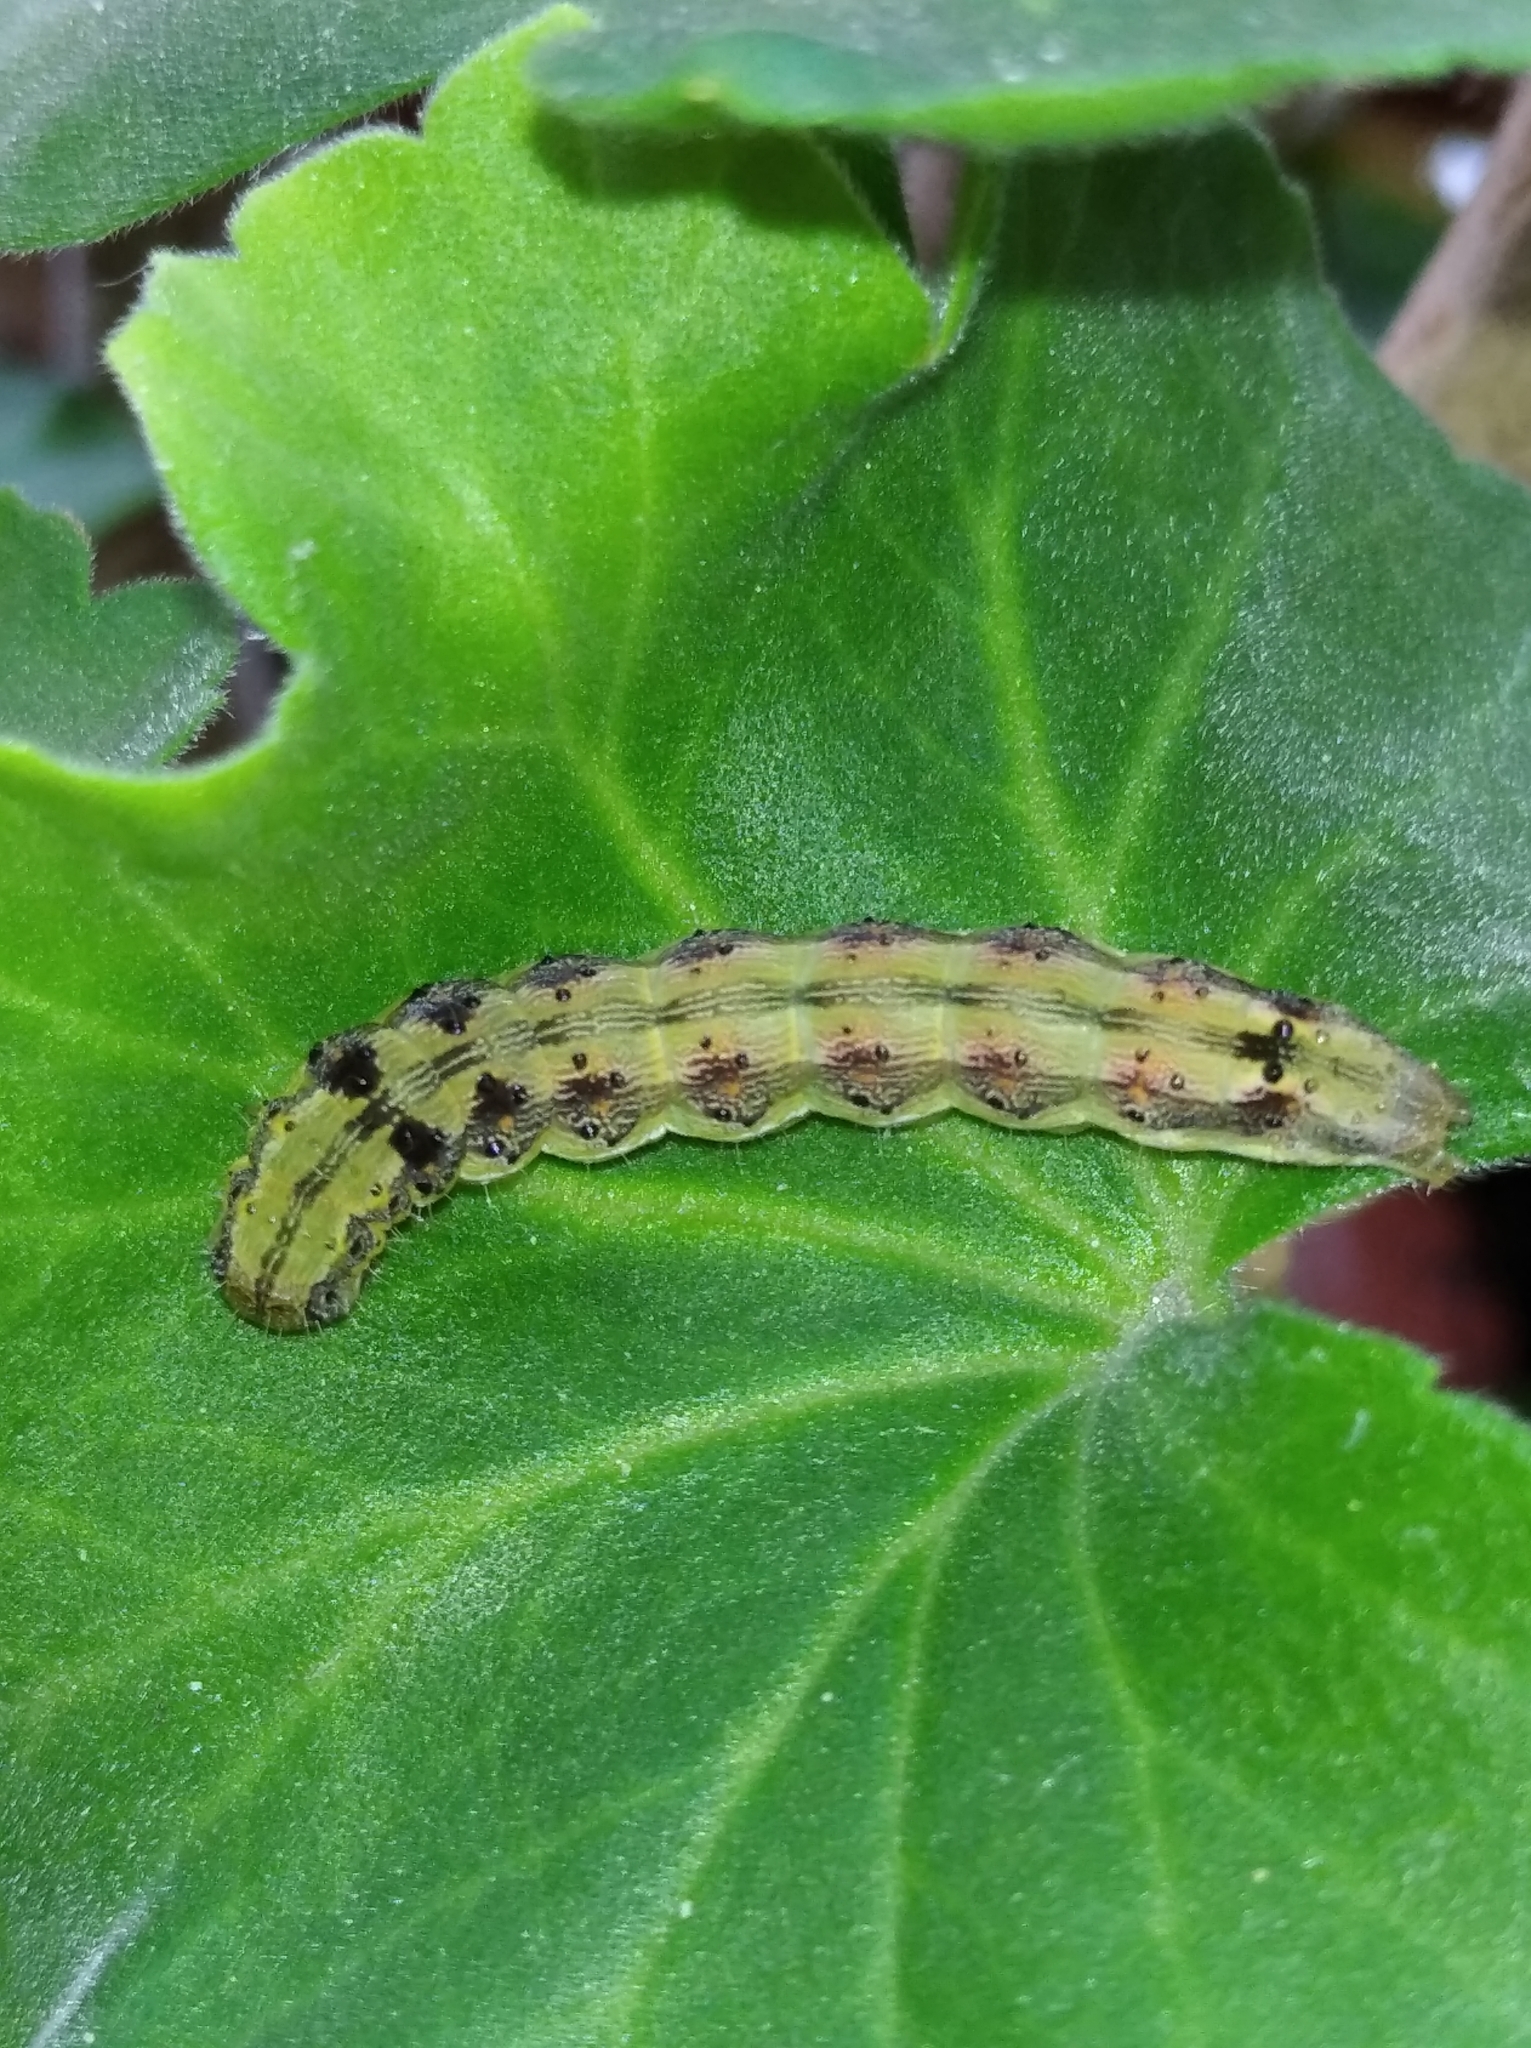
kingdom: Animalia
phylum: Arthropoda
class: Insecta
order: Lepidoptera
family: Noctuidae
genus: Helicoverpa
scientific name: Helicoverpa armigera
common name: Cotton bollworm
